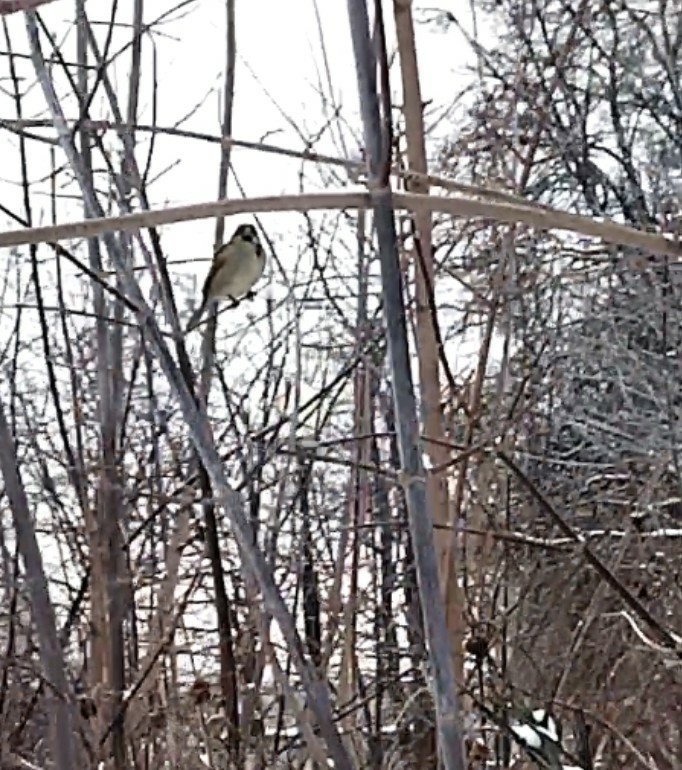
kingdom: Animalia
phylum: Chordata
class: Aves
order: Passeriformes
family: Passeridae
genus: Passer
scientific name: Passer domesticus
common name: House sparrow
